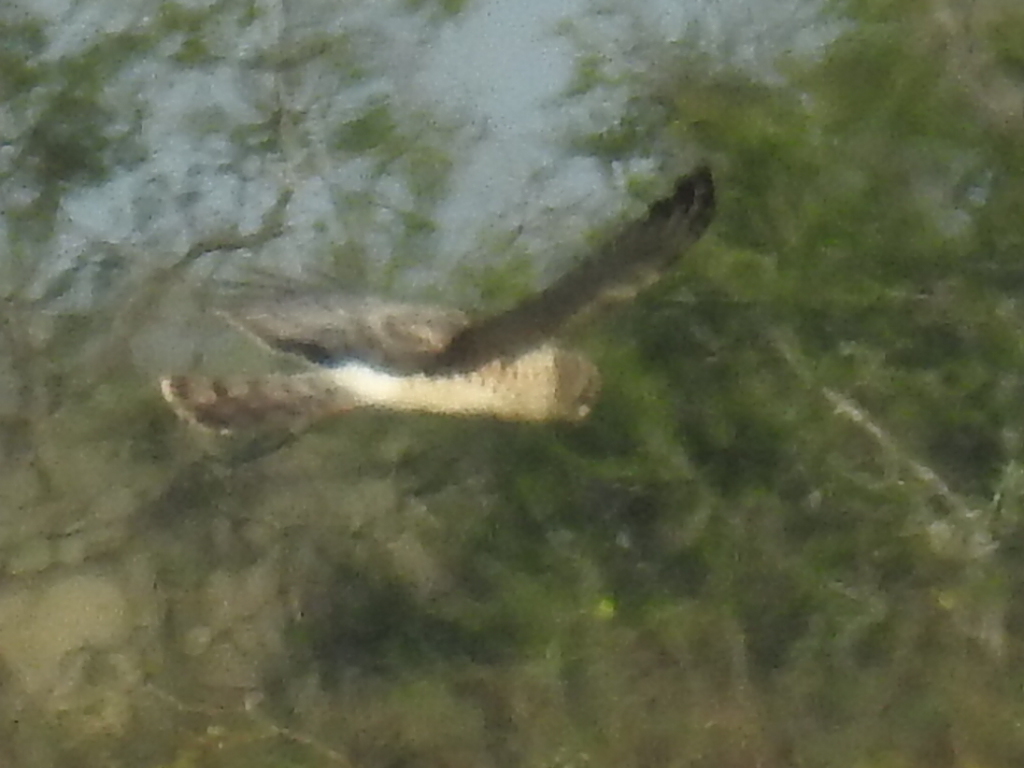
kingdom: Animalia
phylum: Chordata
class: Aves
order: Accipitriformes
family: Accipitridae
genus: Circus
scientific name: Circus cyaneus
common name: Hen harrier
